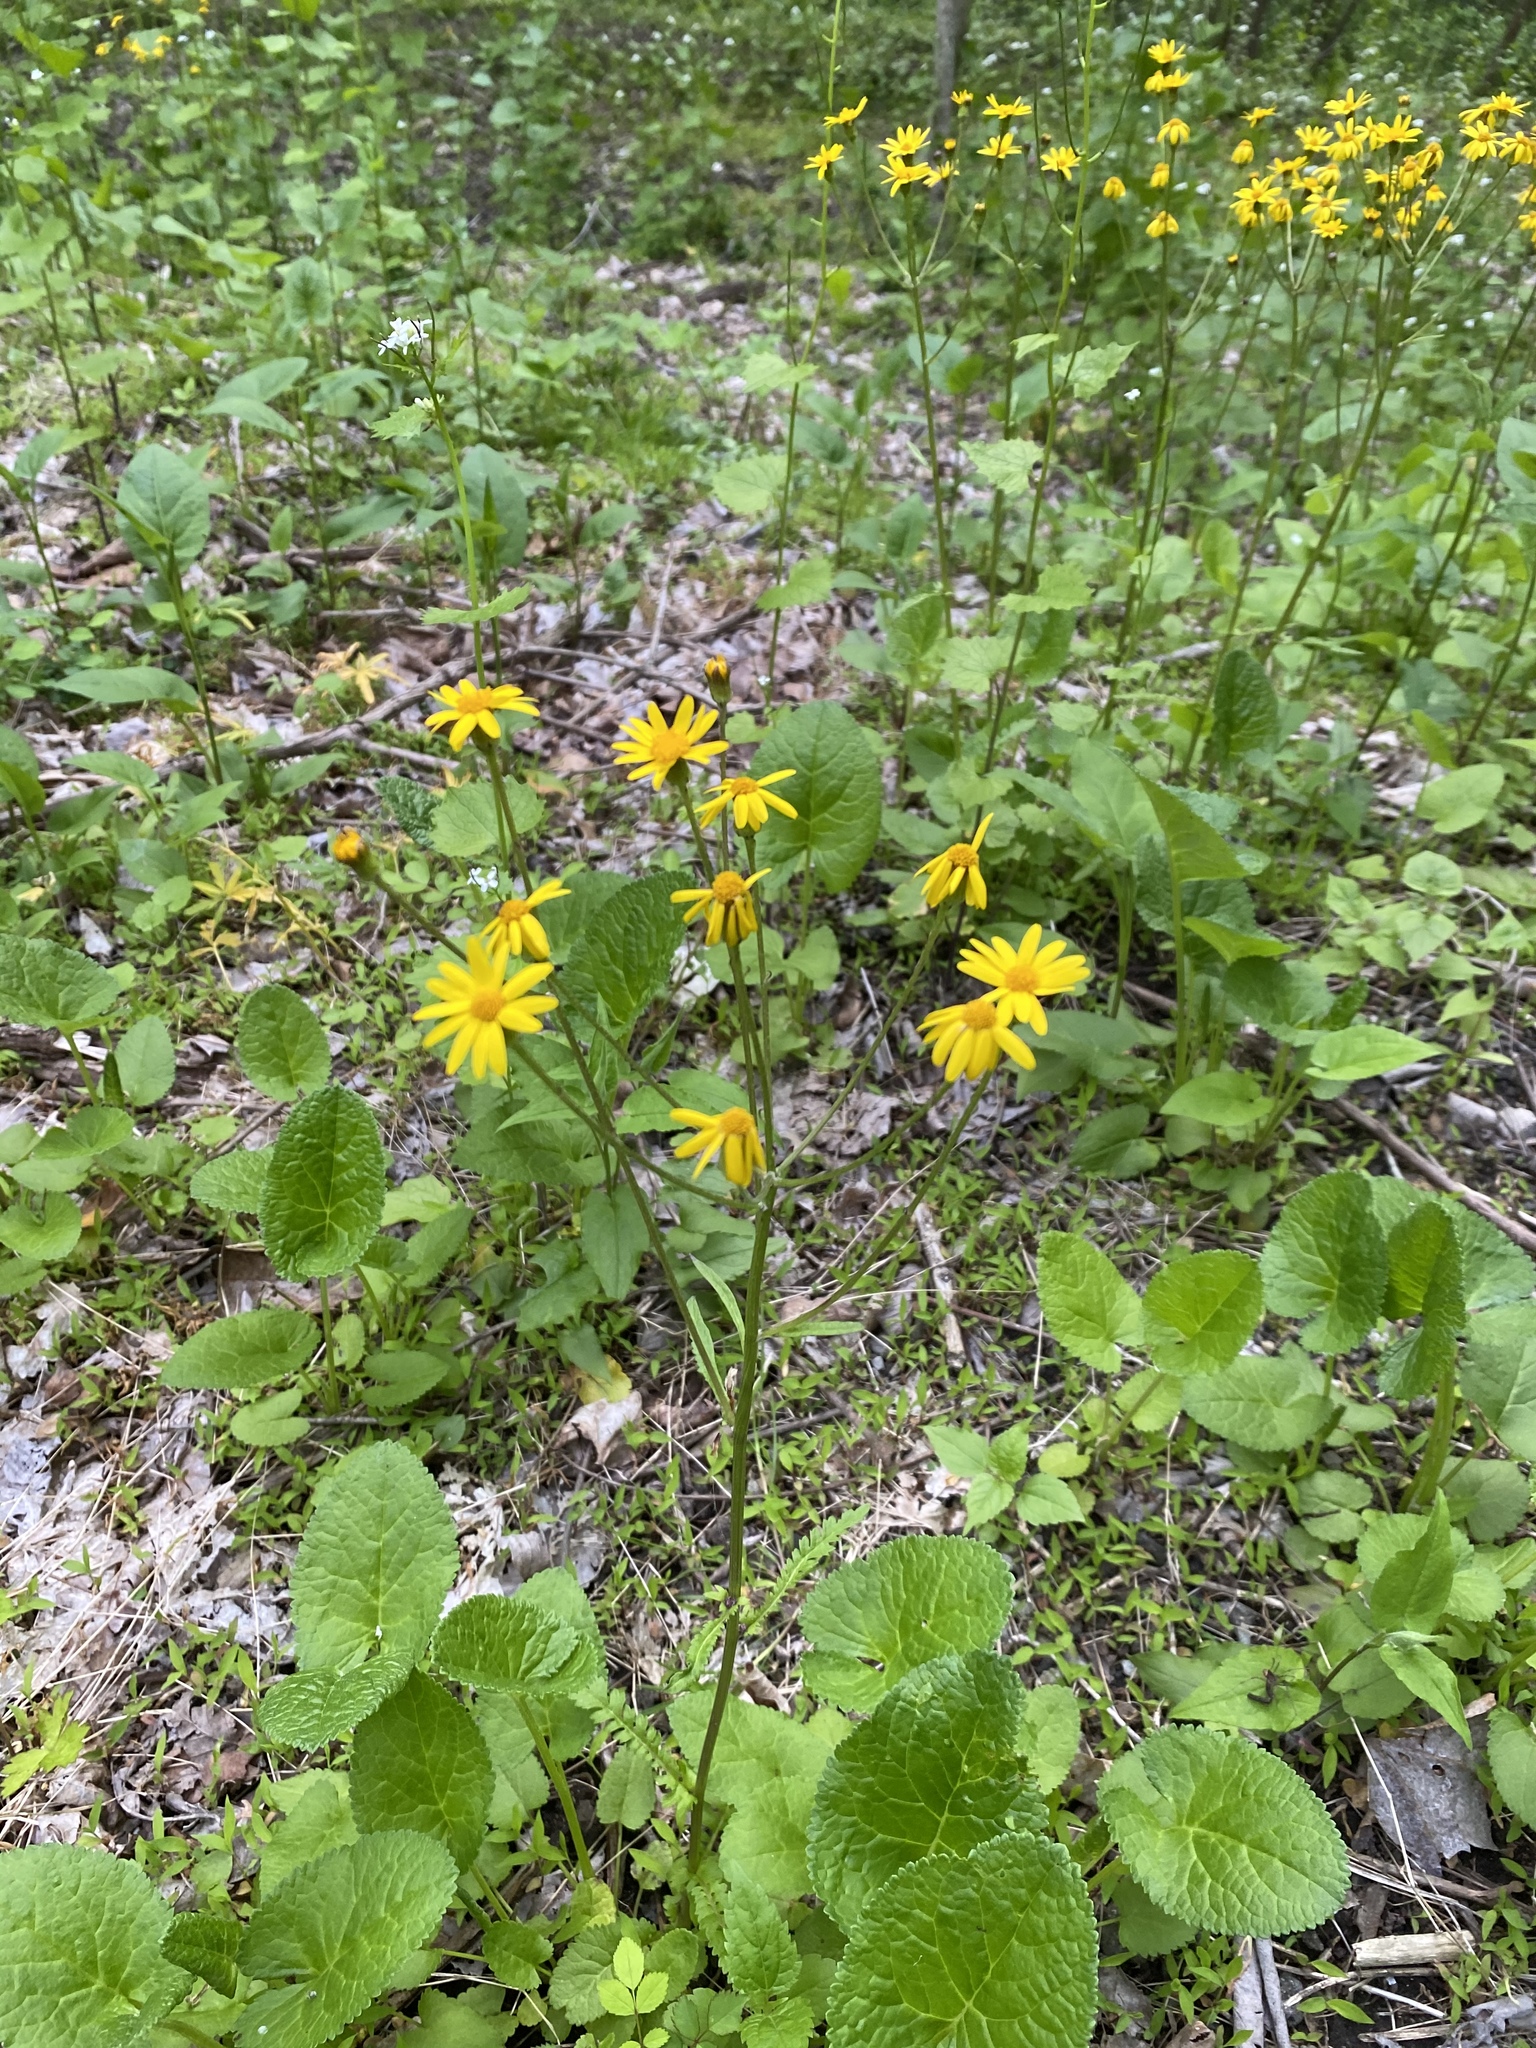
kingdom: Plantae
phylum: Tracheophyta
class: Magnoliopsida
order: Asterales
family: Asteraceae
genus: Packera
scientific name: Packera aurea
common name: Golden groundsel
